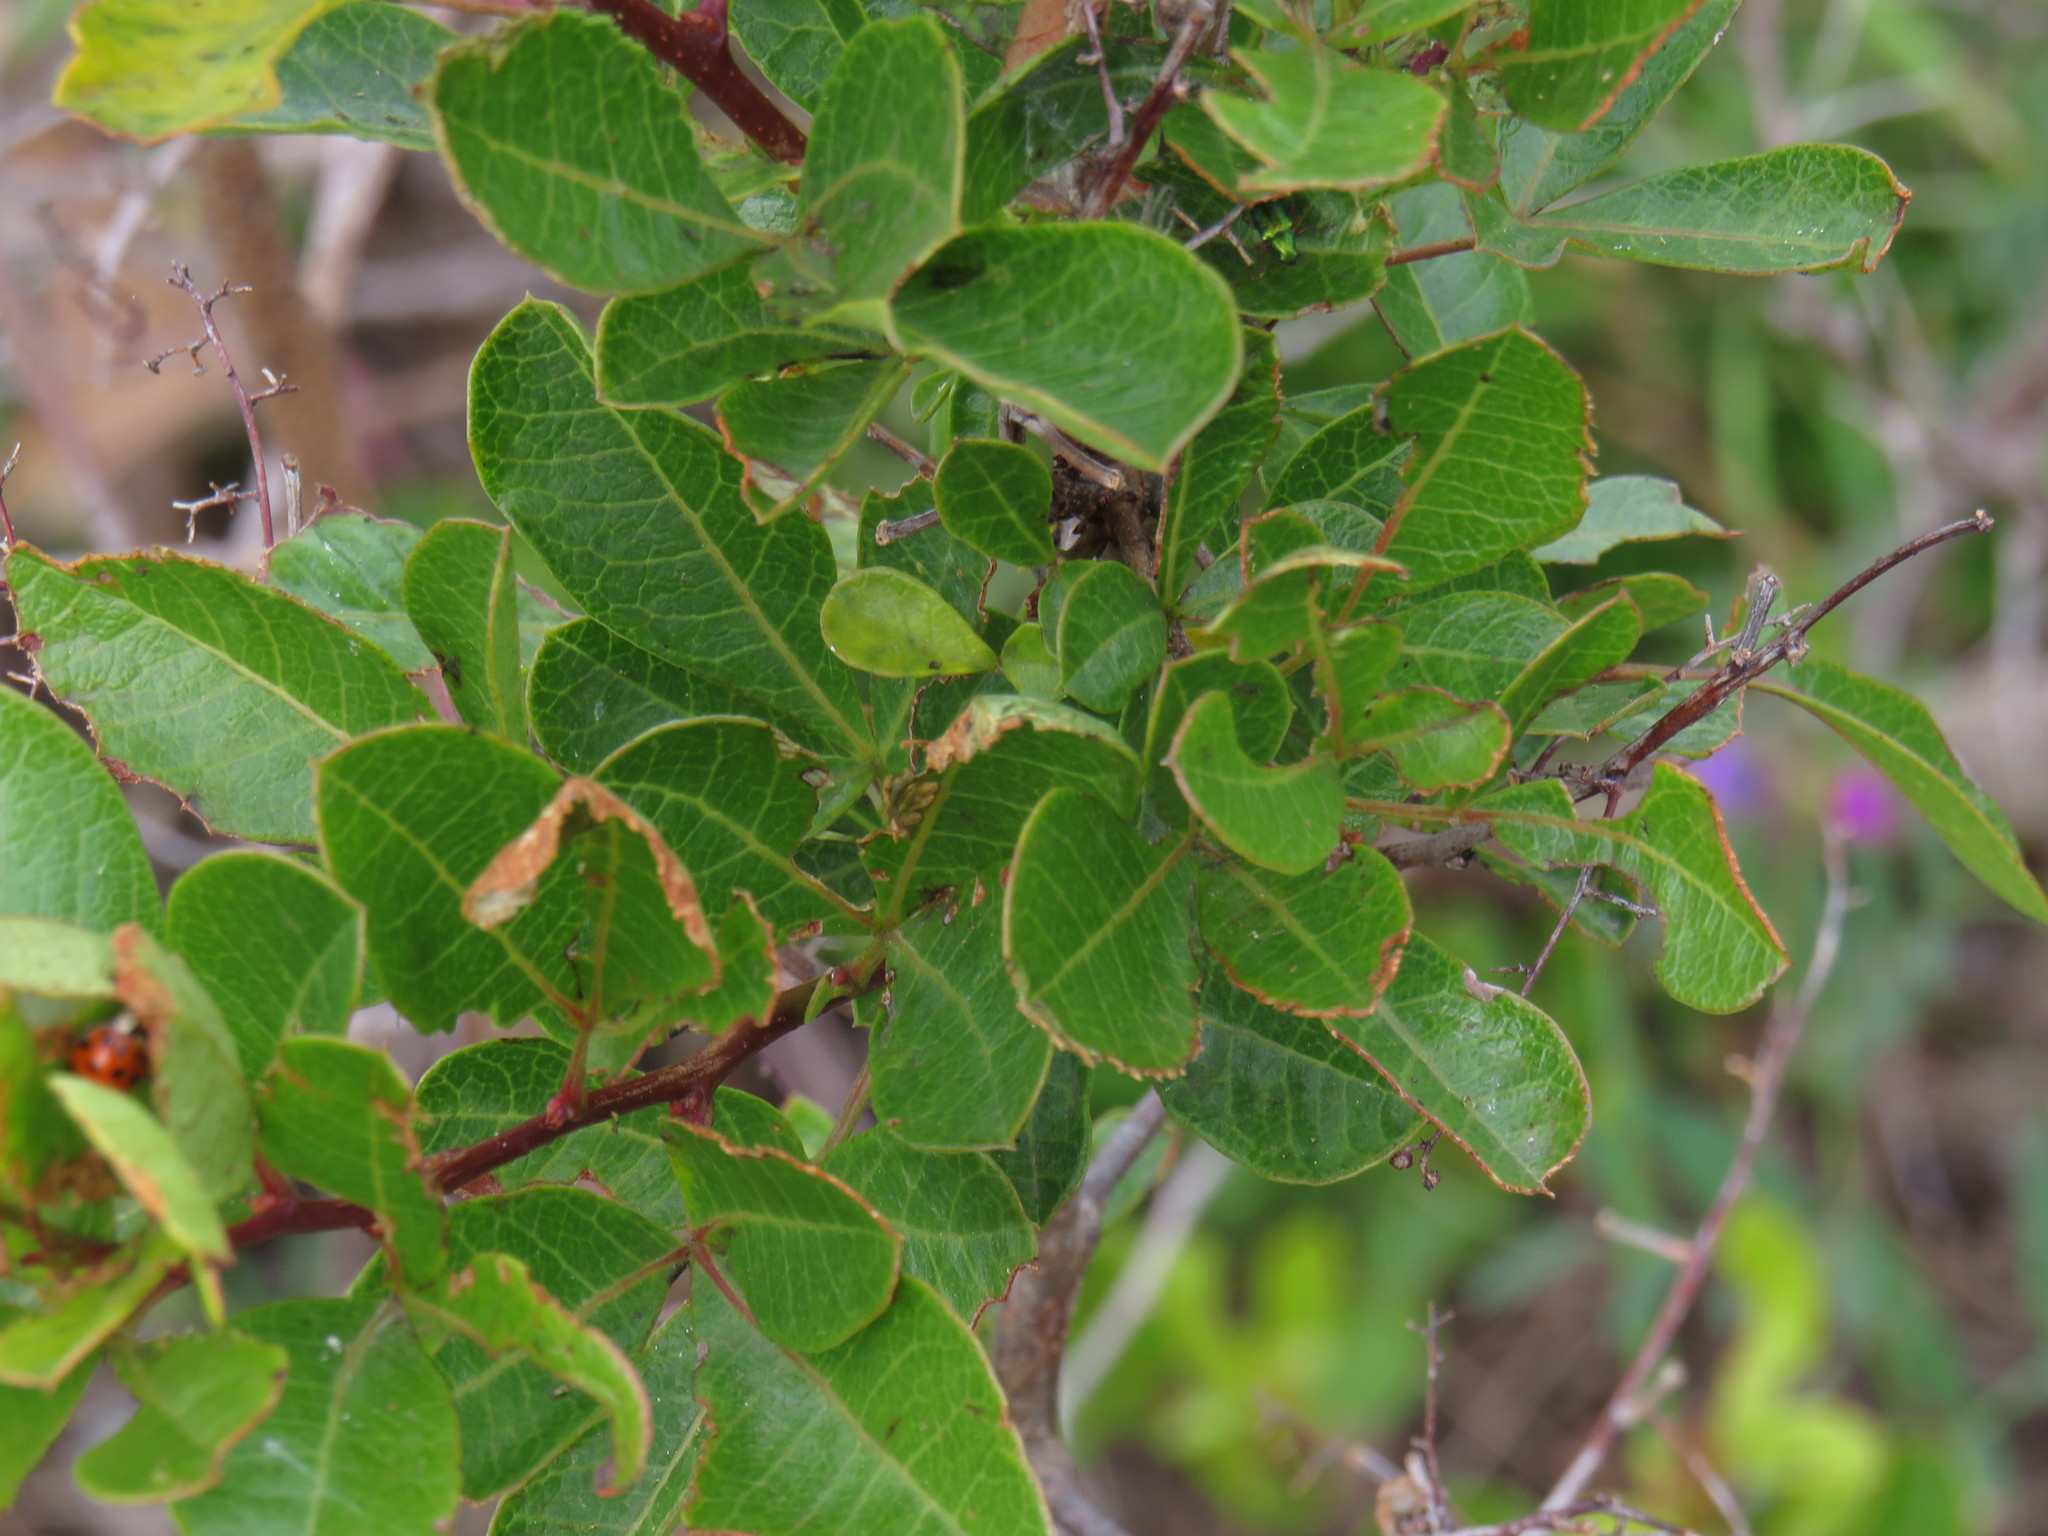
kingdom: Plantae
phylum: Tracheophyta
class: Magnoliopsida
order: Sapindales
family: Anacardiaceae
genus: Searsia
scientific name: Searsia laevigata
